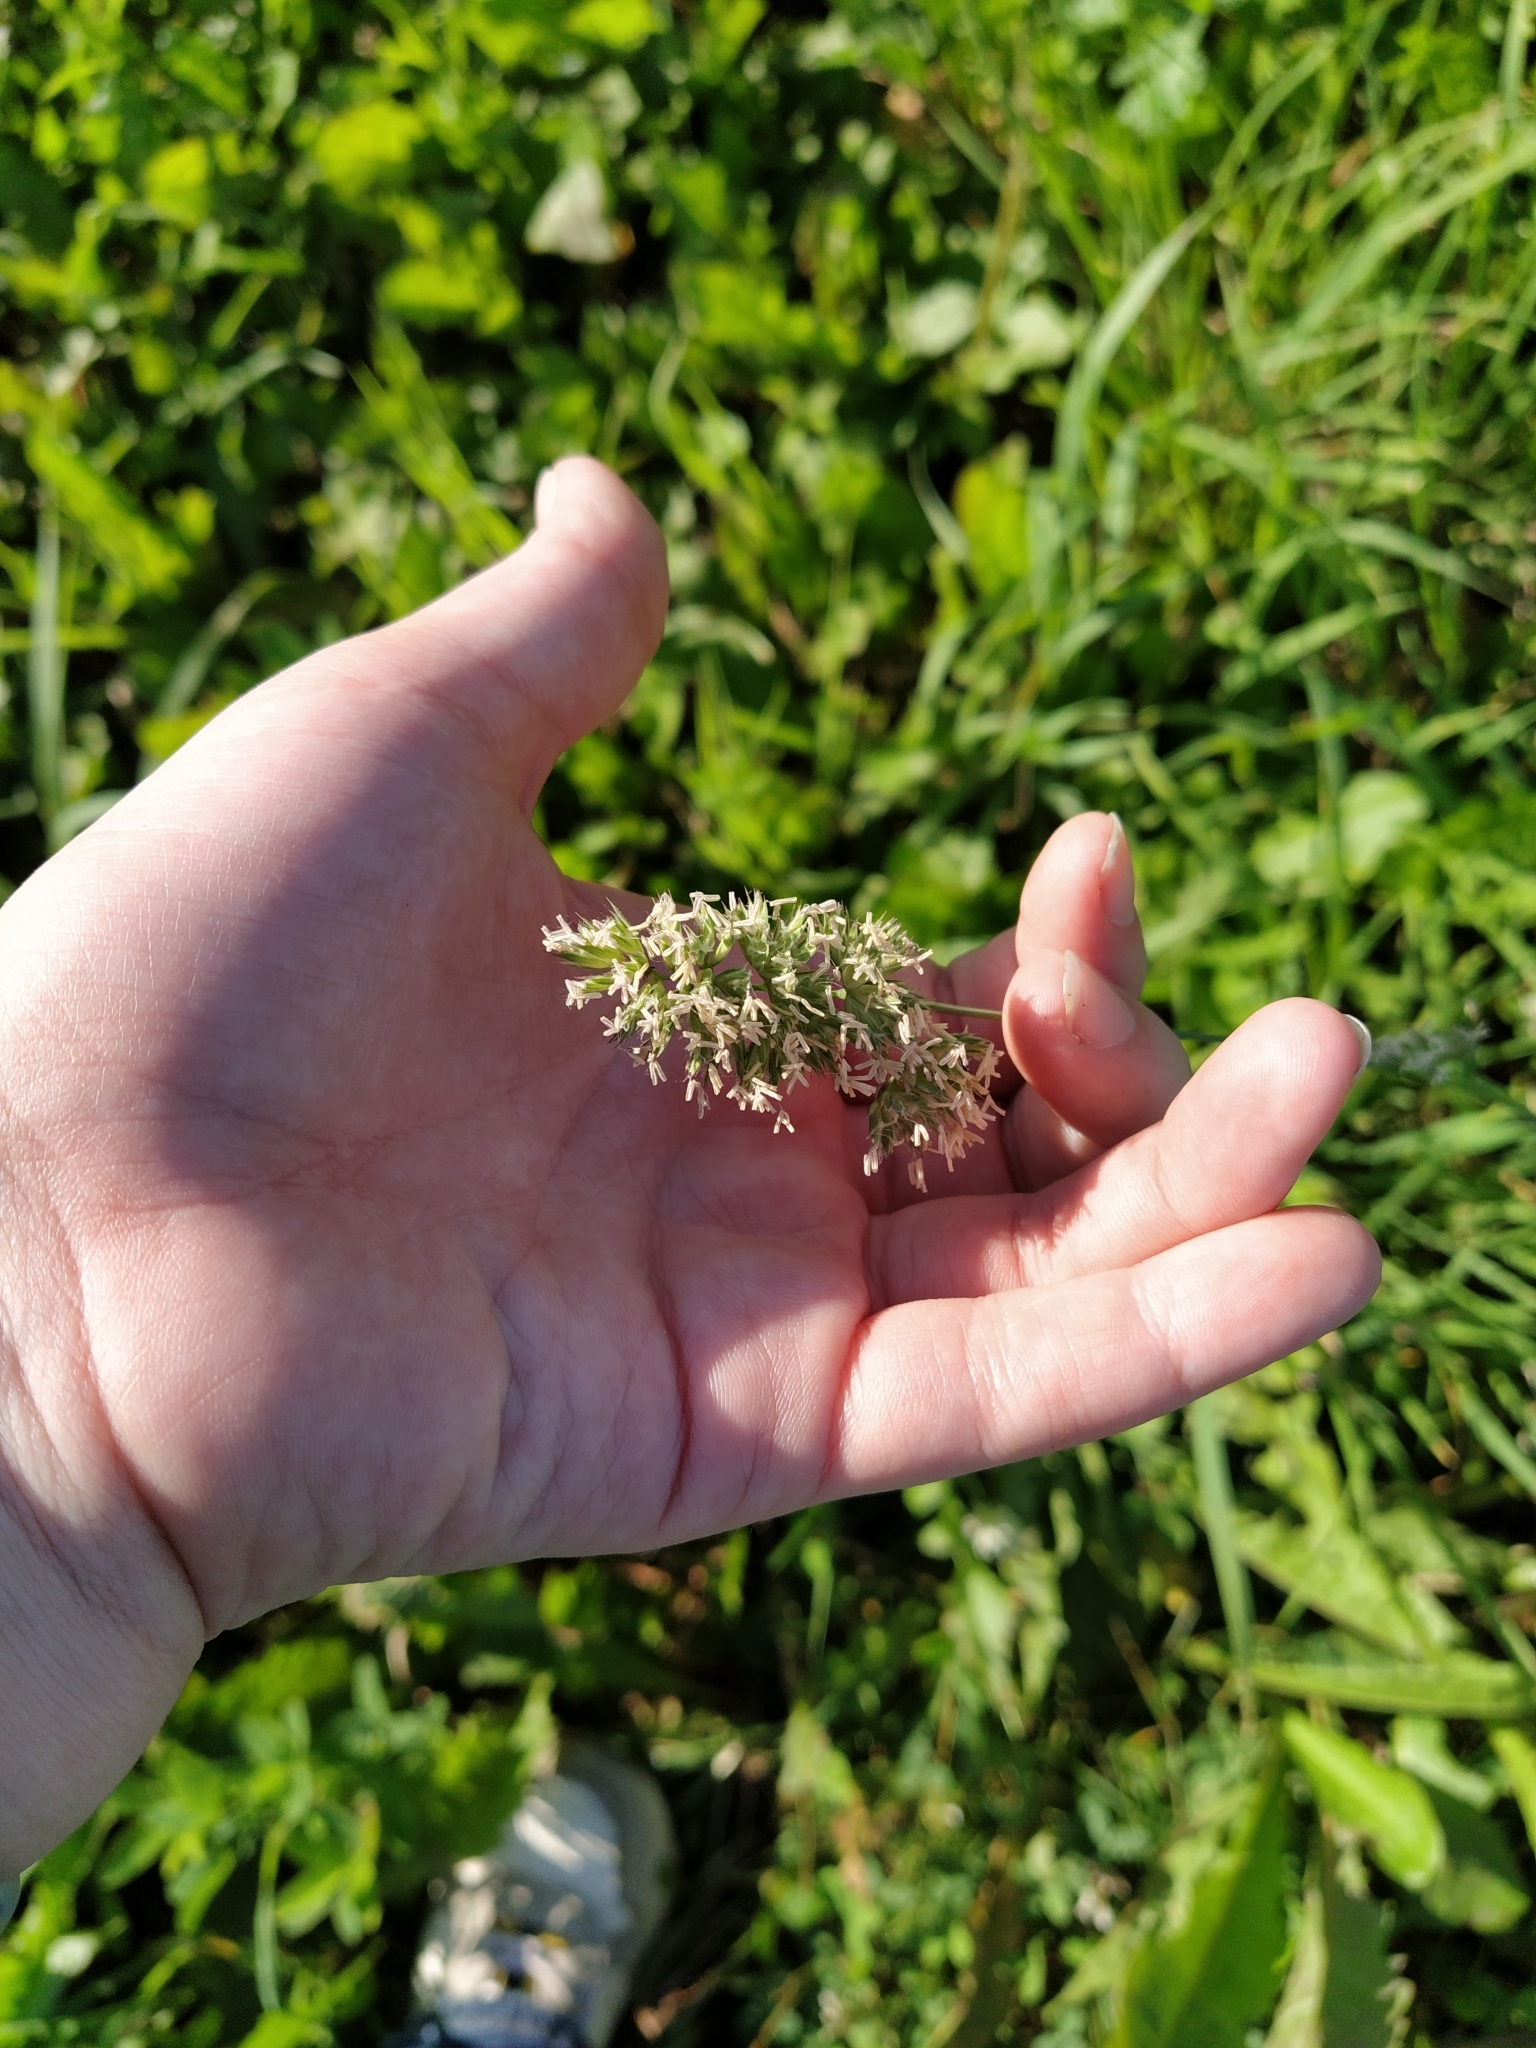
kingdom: Plantae
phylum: Tracheophyta
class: Liliopsida
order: Poales
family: Poaceae
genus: Dactylis
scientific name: Dactylis glomerata
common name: Orchardgrass
